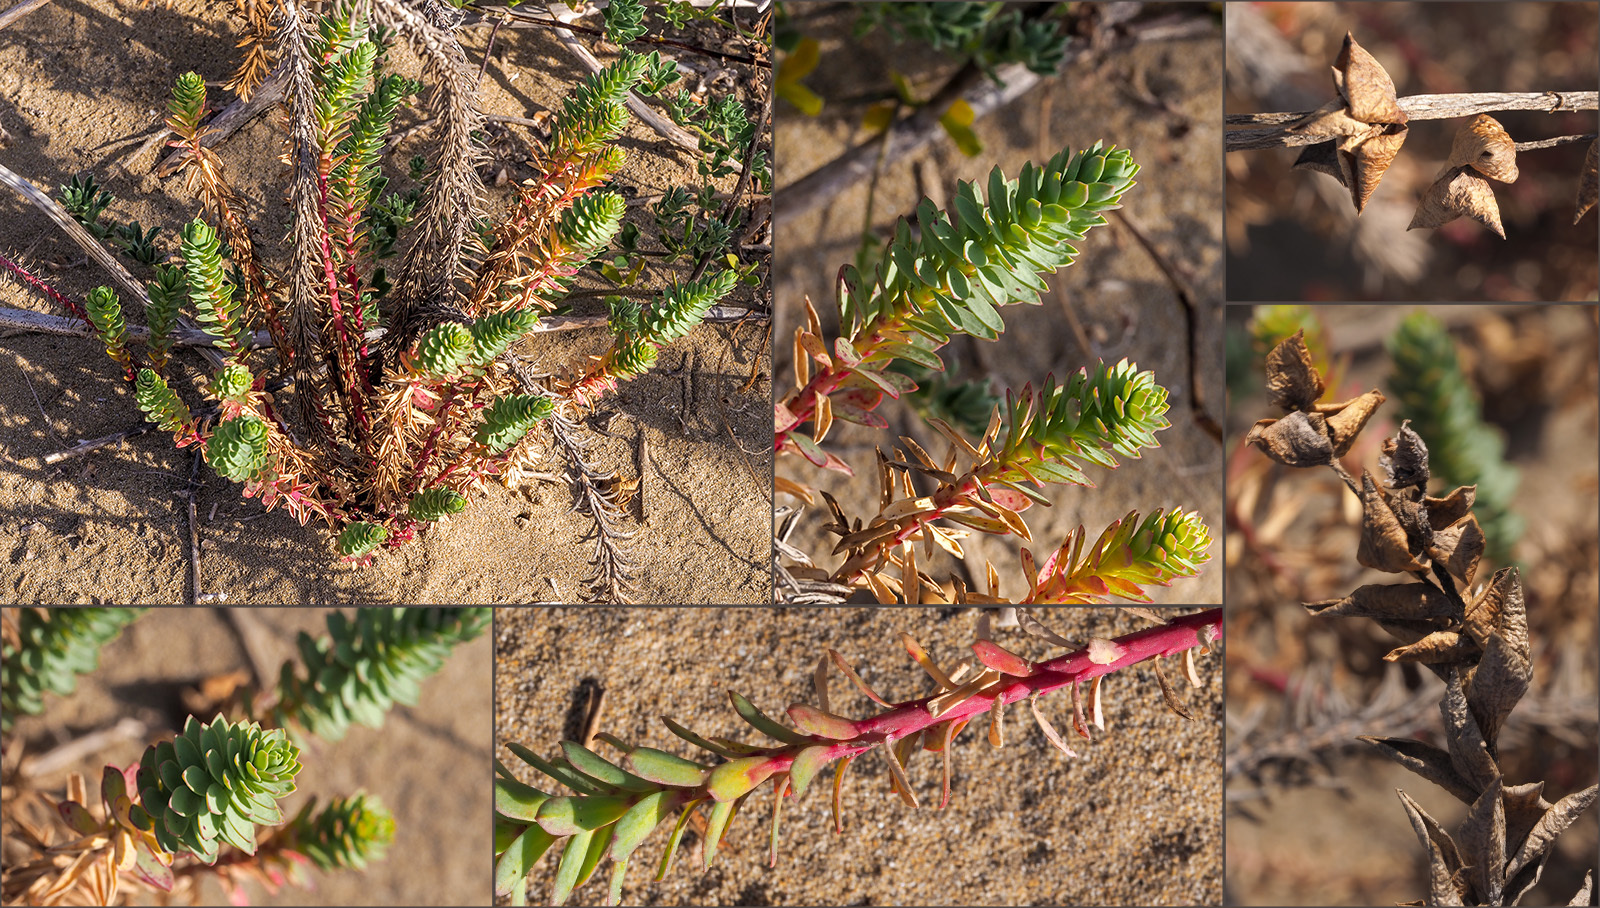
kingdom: Plantae
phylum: Tracheophyta
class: Magnoliopsida
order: Malpighiales
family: Euphorbiaceae
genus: Euphorbia
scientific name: Euphorbia paralias
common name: Sea spurge
